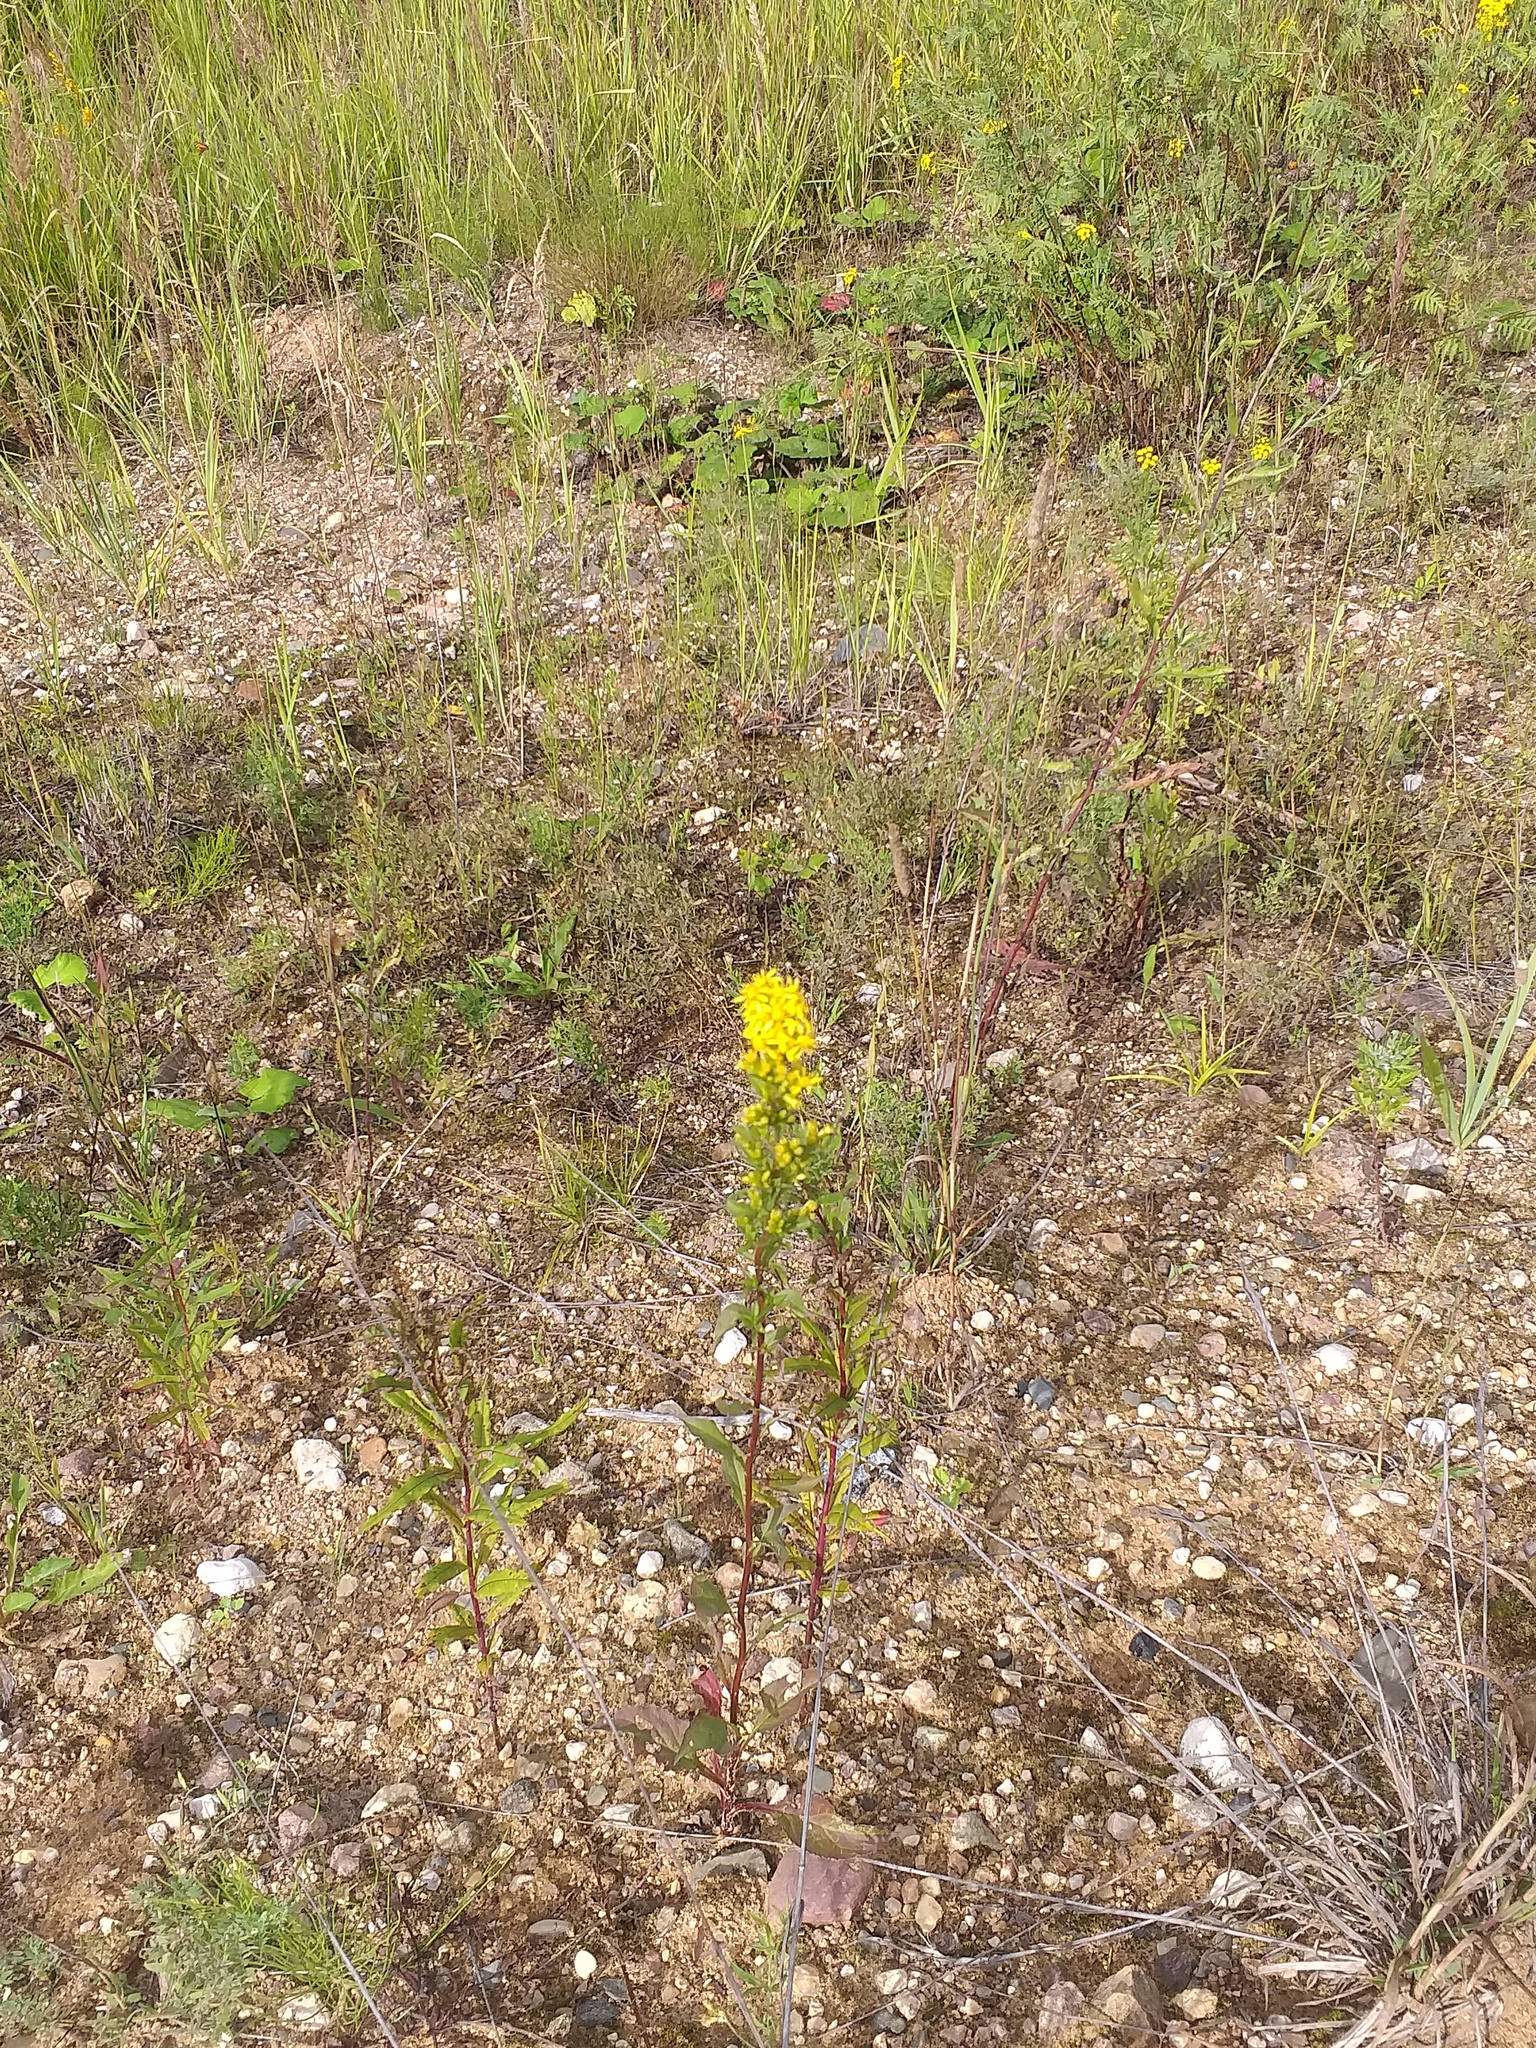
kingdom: Plantae
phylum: Tracheophyta
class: Magnoliopsida
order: Asterales
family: Asteraceae
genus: Solidago
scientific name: Solidago virgaurea
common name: Goldenrod
